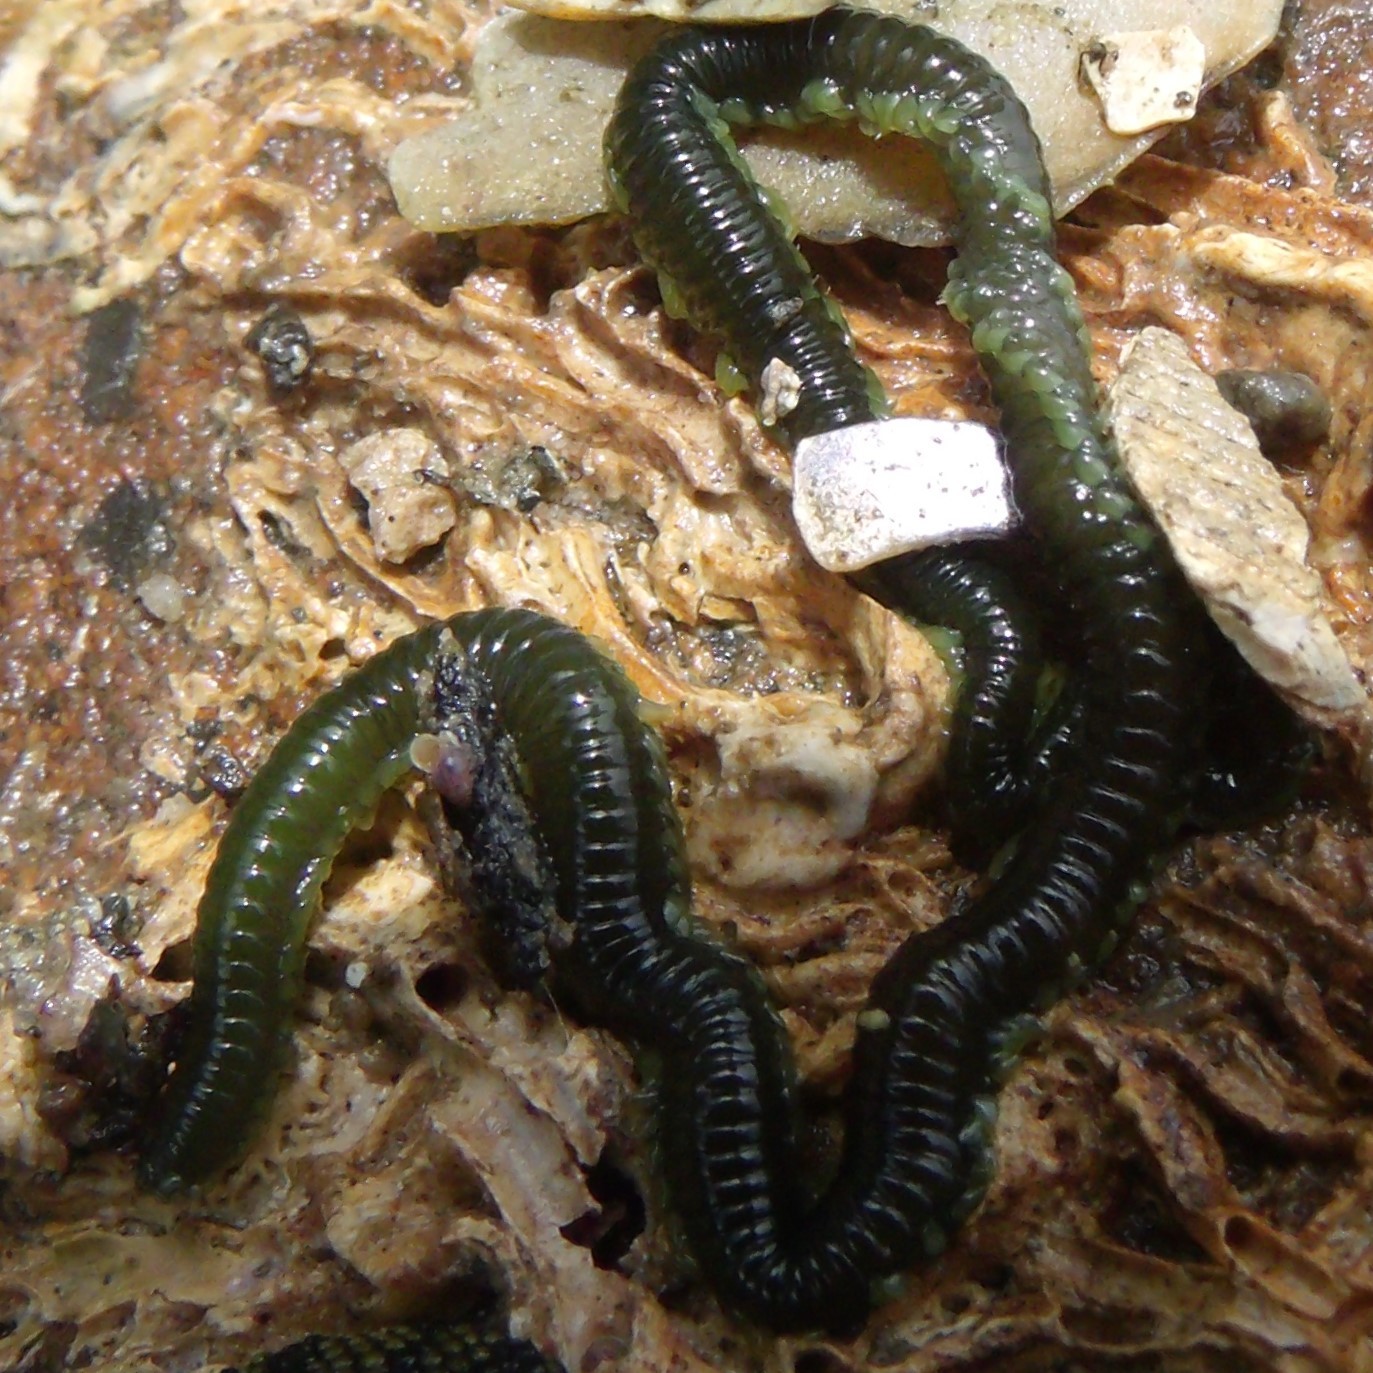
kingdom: Animalia
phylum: Annelida
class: Polychaeta
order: Phyllodocida
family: Phyllodocidae
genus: Eulalia
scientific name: Eulalia microphylla
